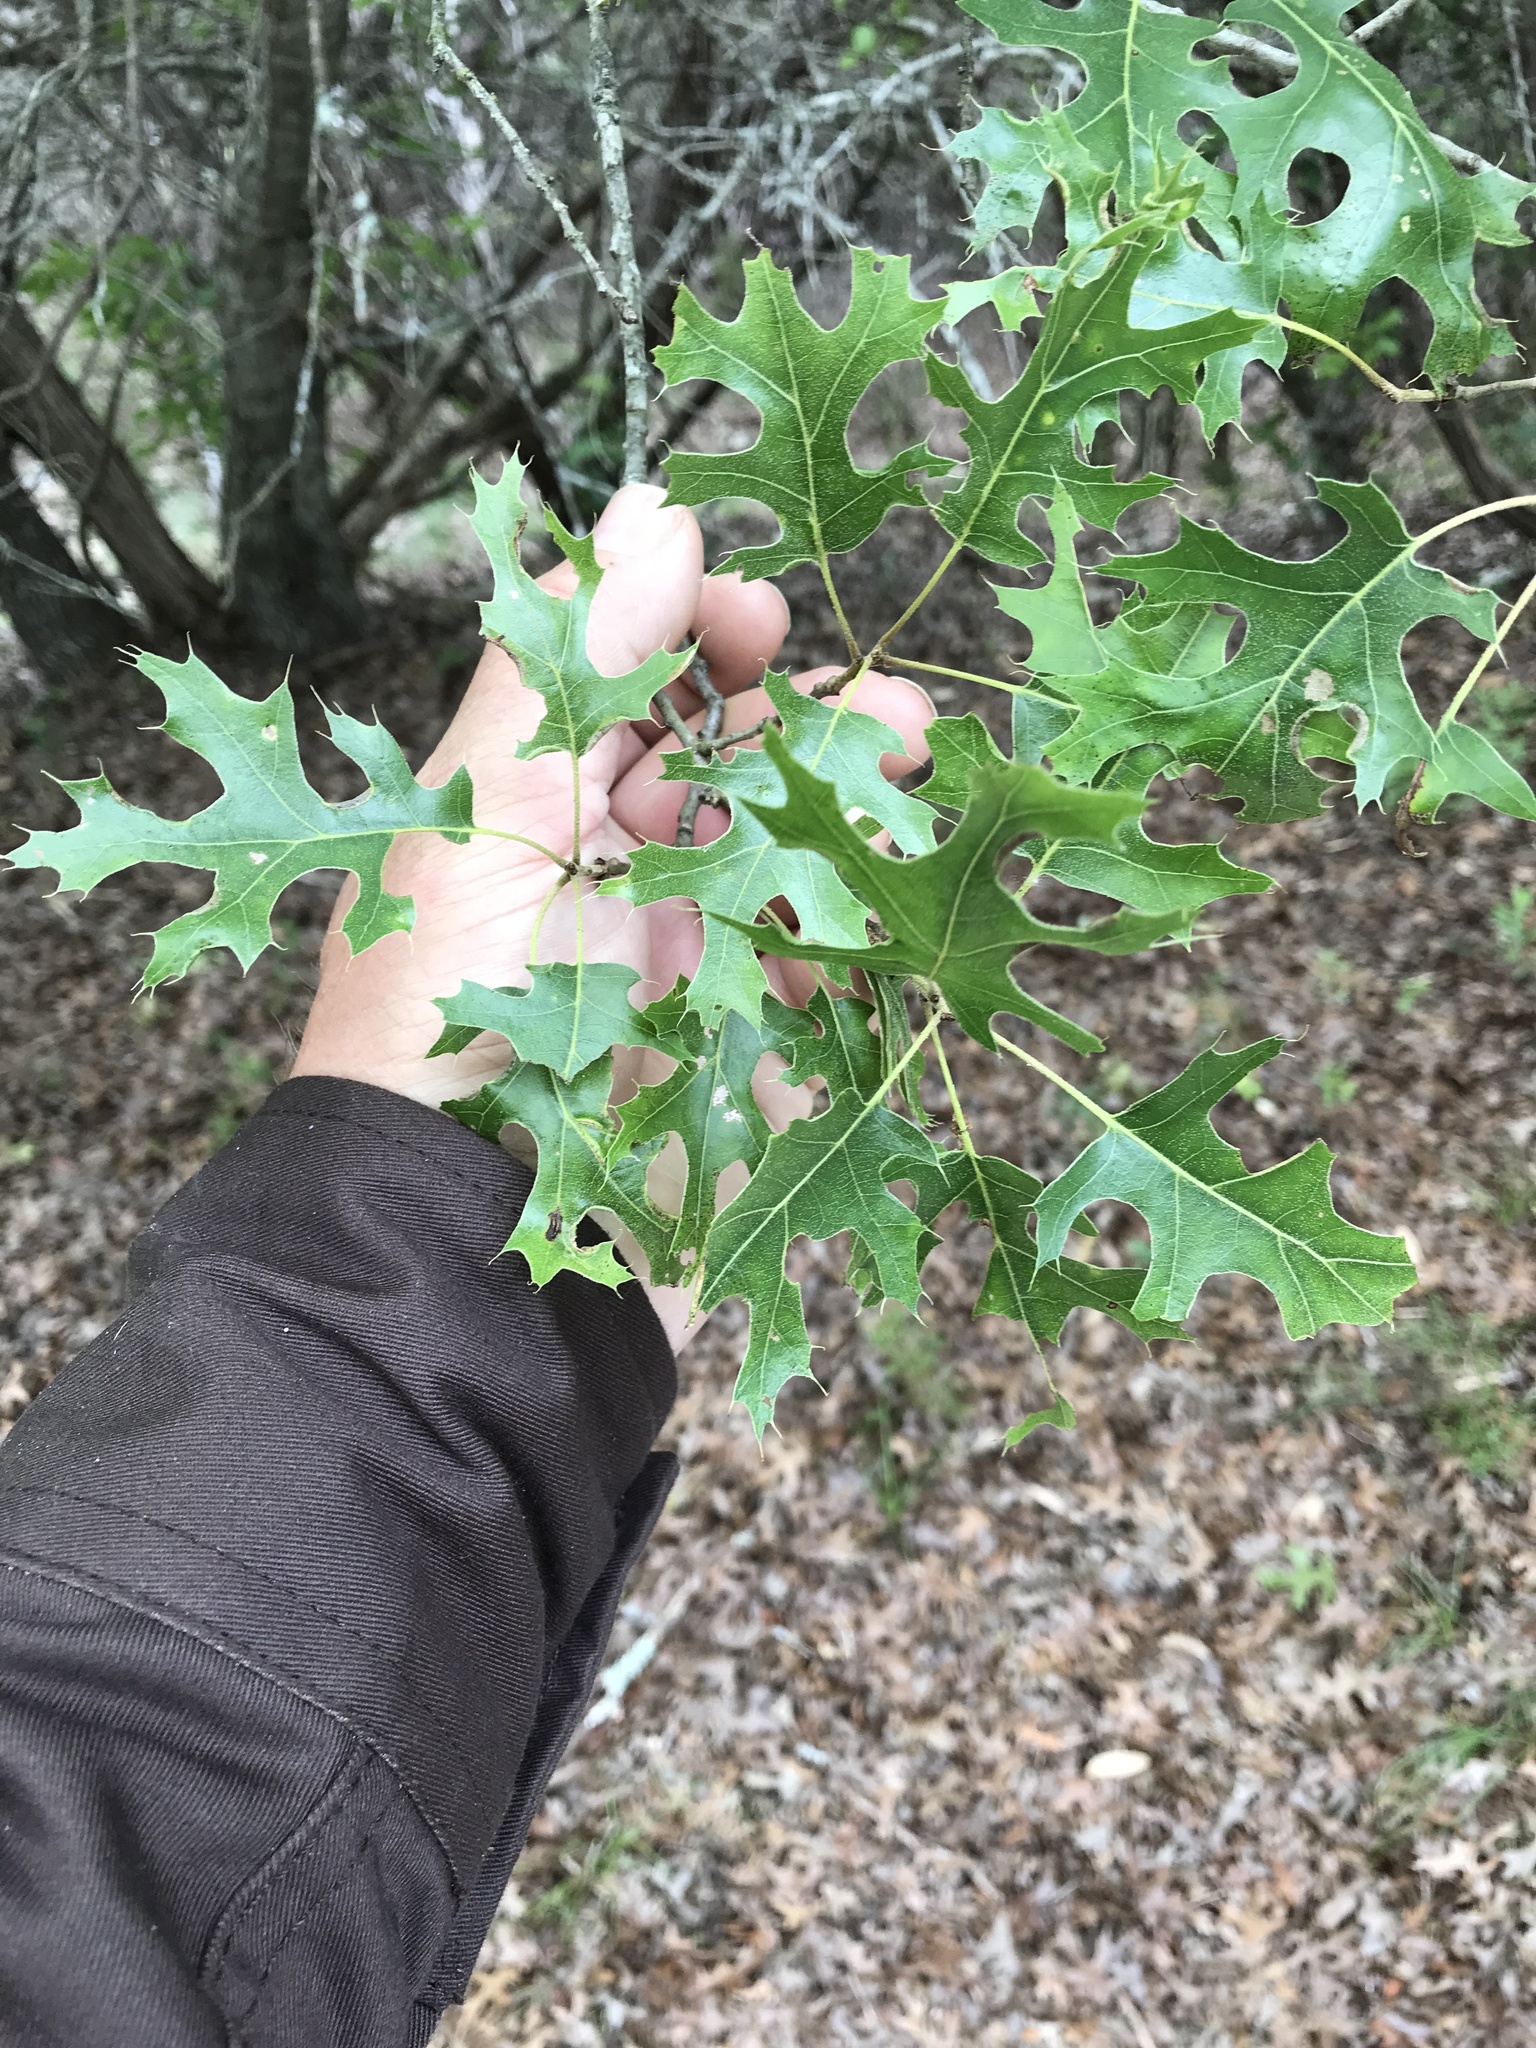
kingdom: Plantae
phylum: Tracheophyta
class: Magnoliopsida
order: Fagales
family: Fagaceae
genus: Quercus
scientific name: Quercus buckleyi
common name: Buckley oak
